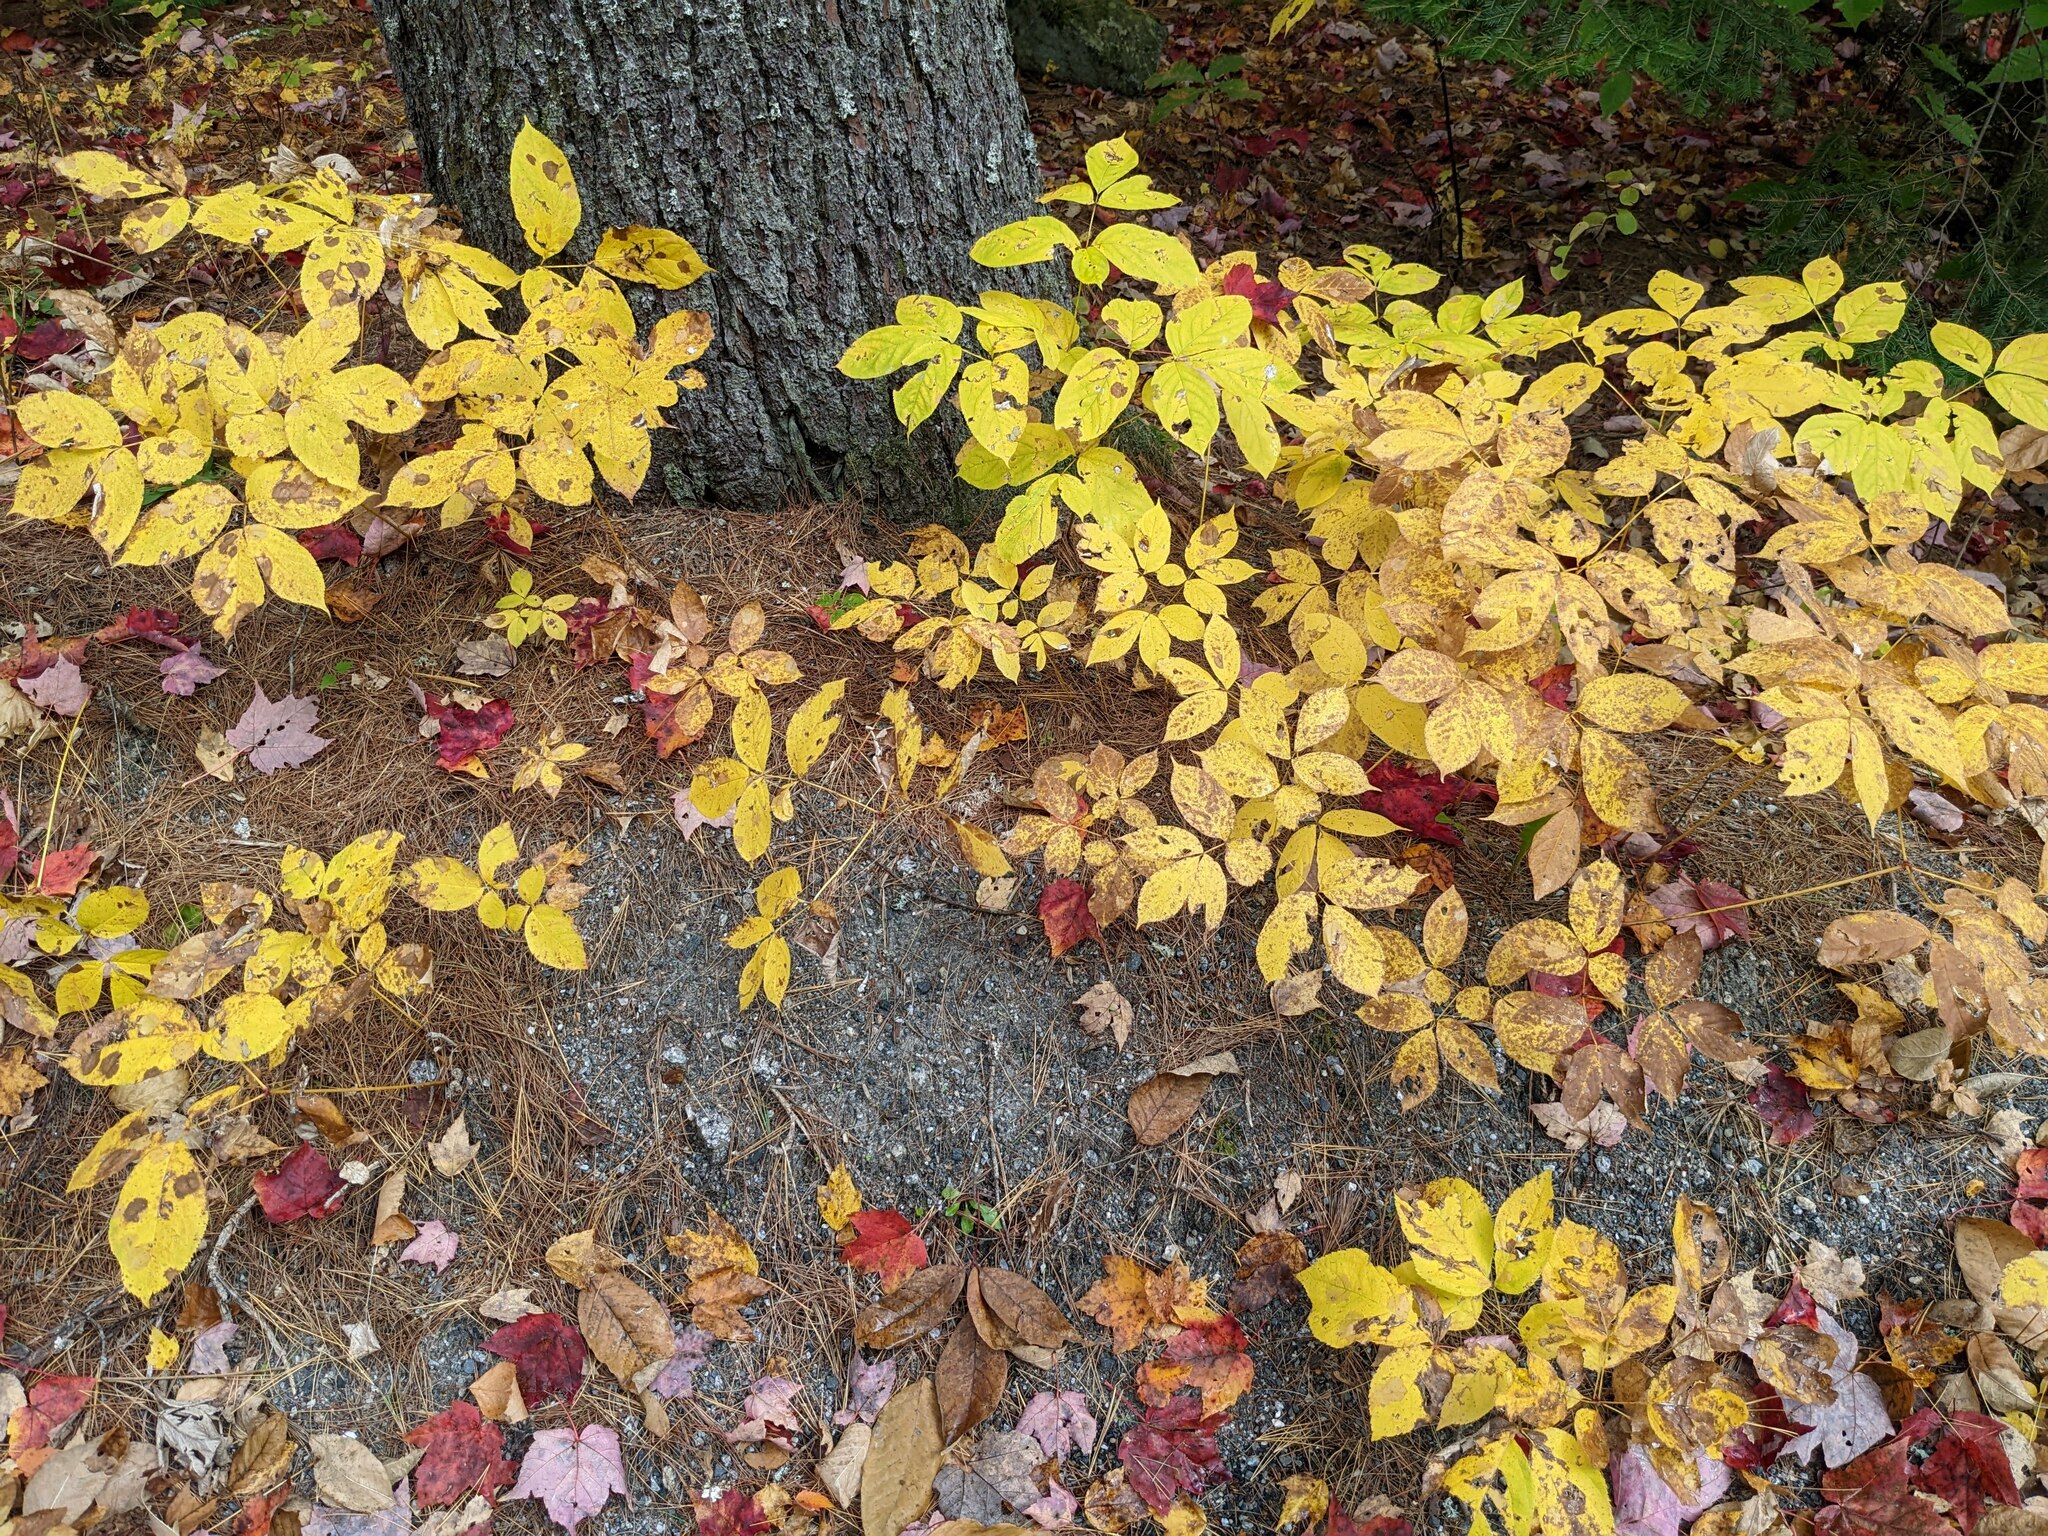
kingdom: Plantae
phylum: Tracheophyta
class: Magnoliopsida
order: Apiales
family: Araliaceae
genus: Aralia
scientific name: Aralia nudicaulis
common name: Wild sarsaparilla
